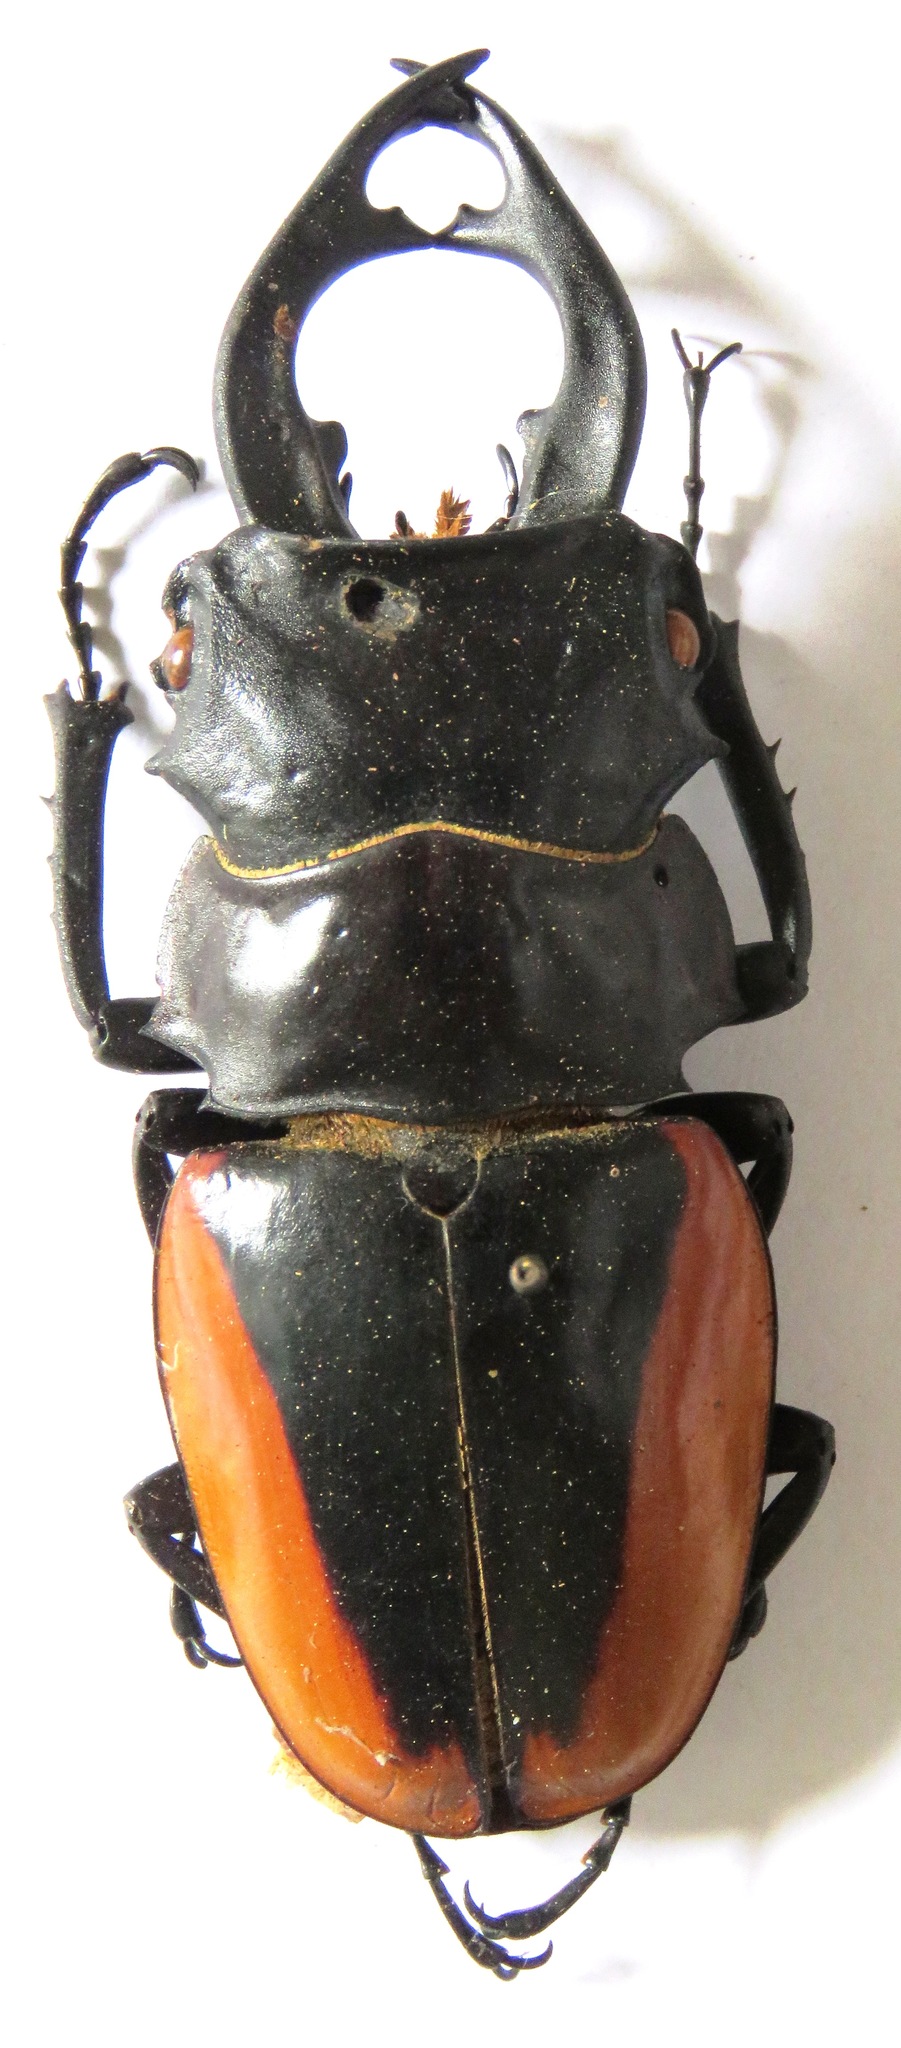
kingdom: Animalia
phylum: Arthropoda
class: Insecta
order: Coleoptera
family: Lucanidae
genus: Odontolabis
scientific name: Odontolabis cuvera
